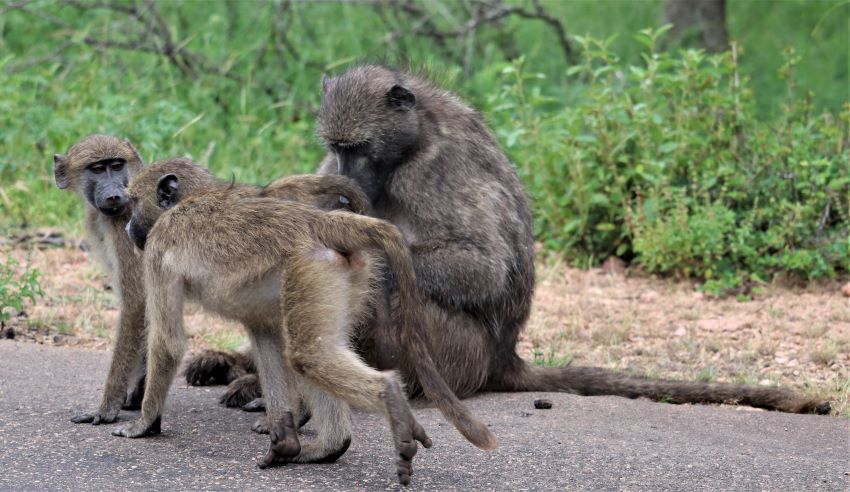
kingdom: Animalia
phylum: Chordata
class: Mammalia
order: Primates
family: Cercopithecidae
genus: Papio
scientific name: Papio ursinus
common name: Chacma baboon
